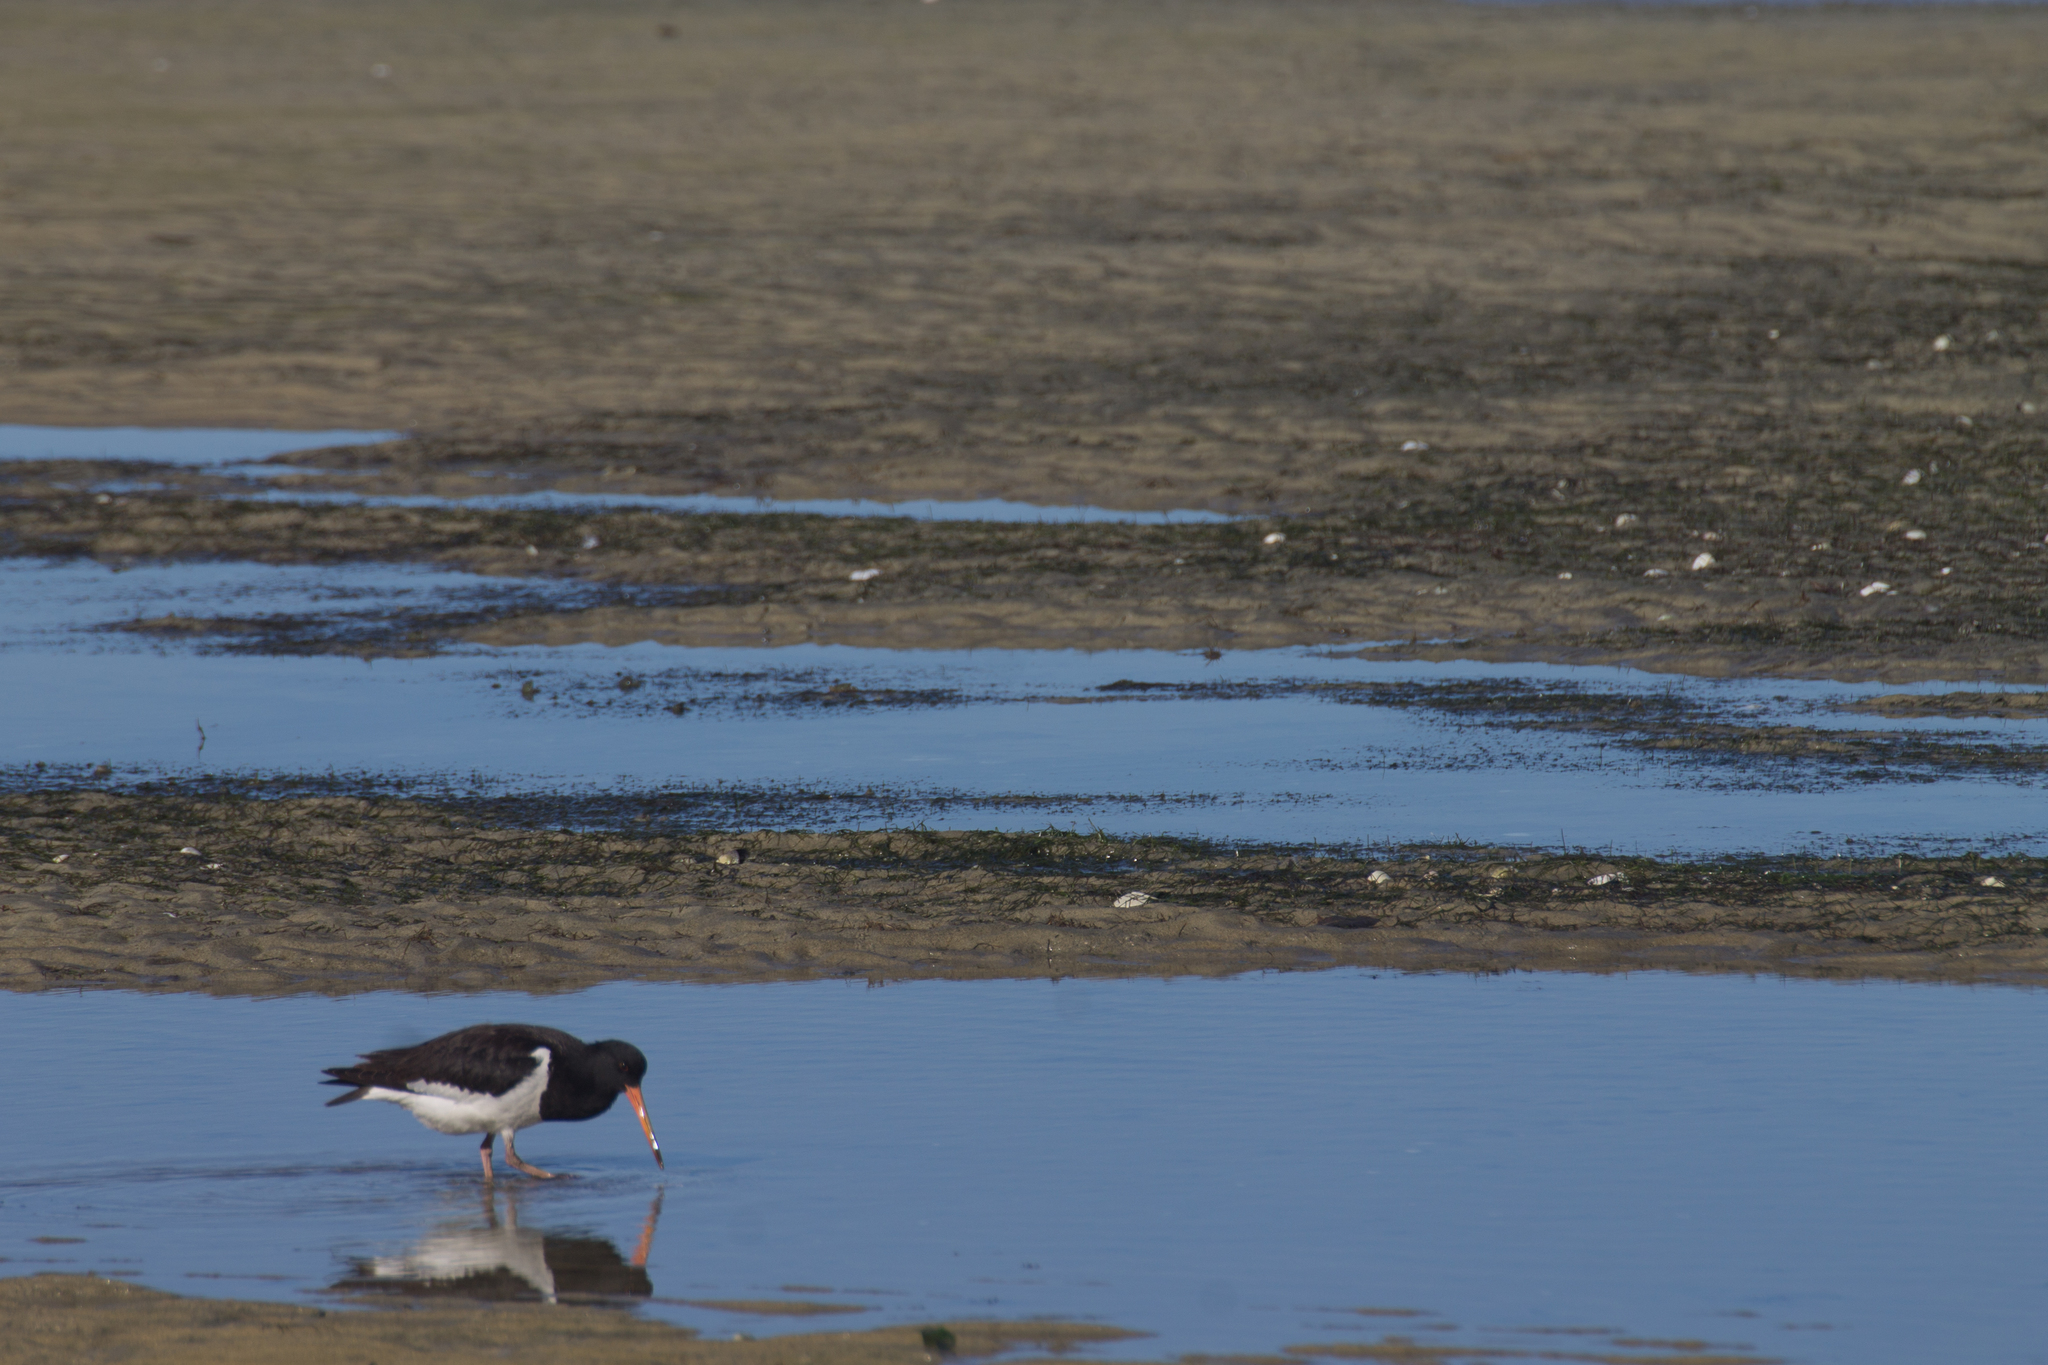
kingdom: Animalia
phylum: Chordata
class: Aves
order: Charadriiformes
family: Haematopodidae
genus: Haematopus
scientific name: Haematopus finschi
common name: South island oystercatcher
